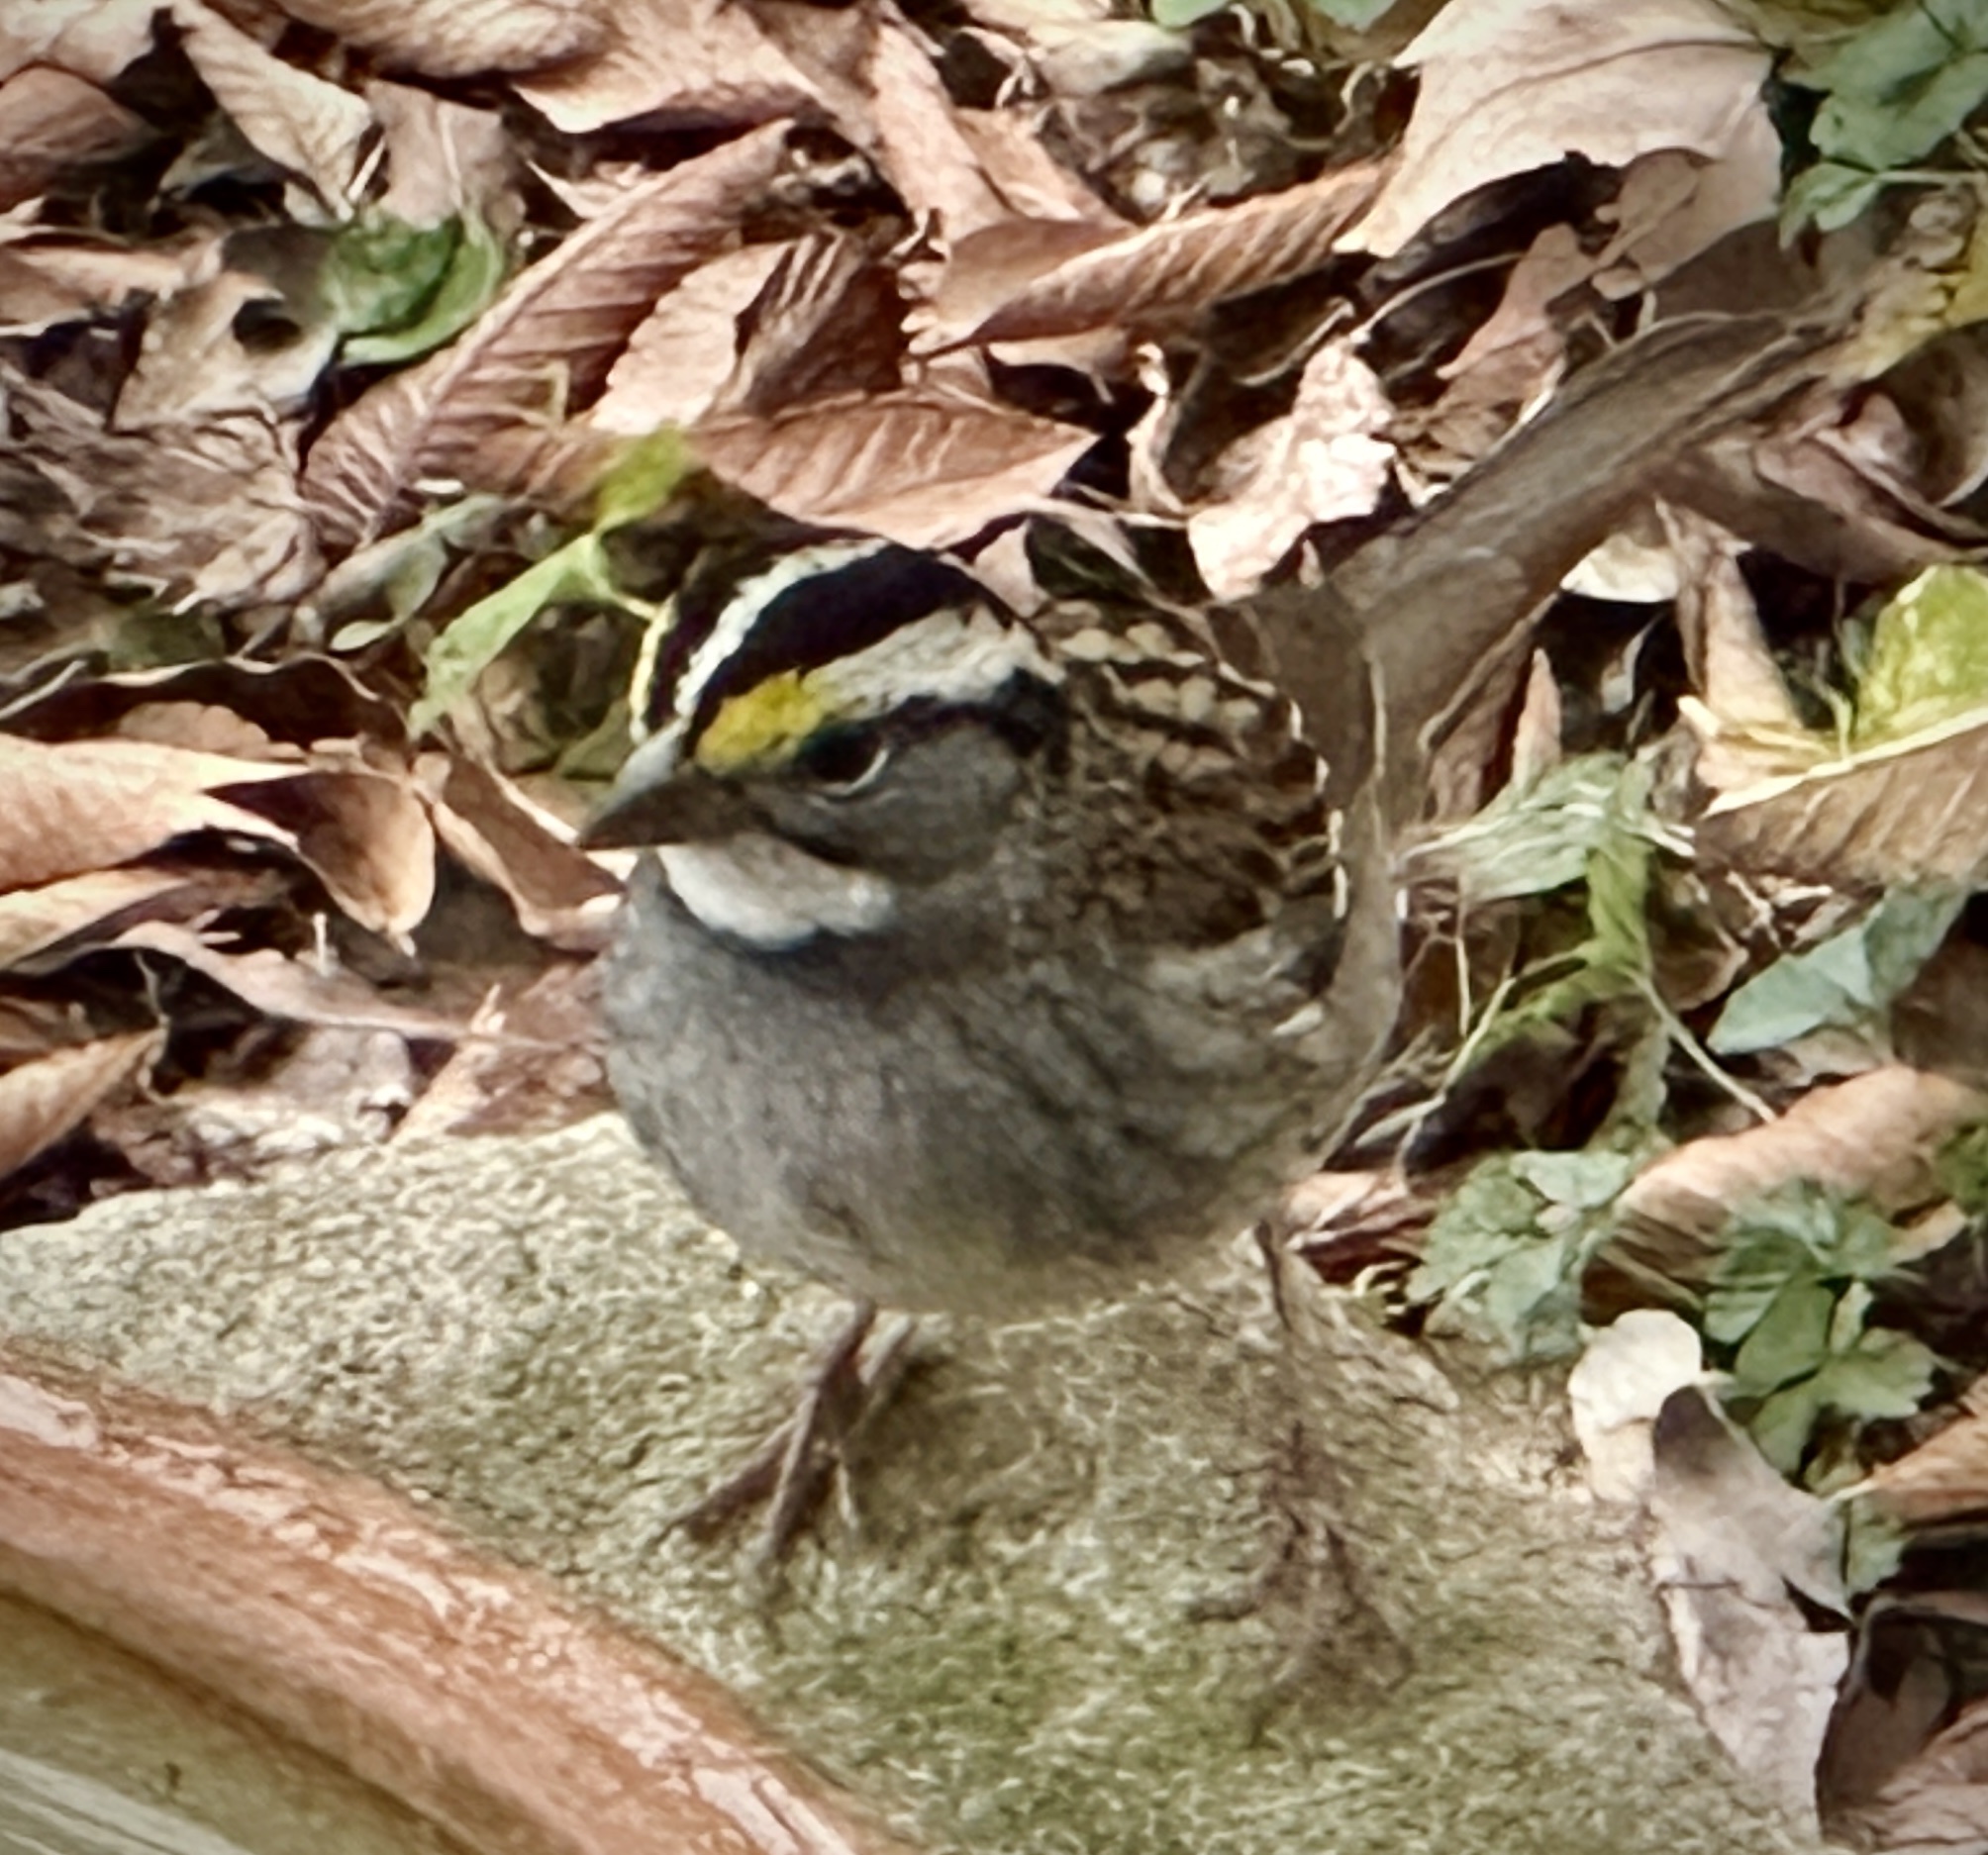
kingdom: Animalia
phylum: Chordata
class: Aves
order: Passeriformes
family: Passerellidae
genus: Zonotrichia
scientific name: Zonotrichia albicollis
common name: White-throated sparrow
